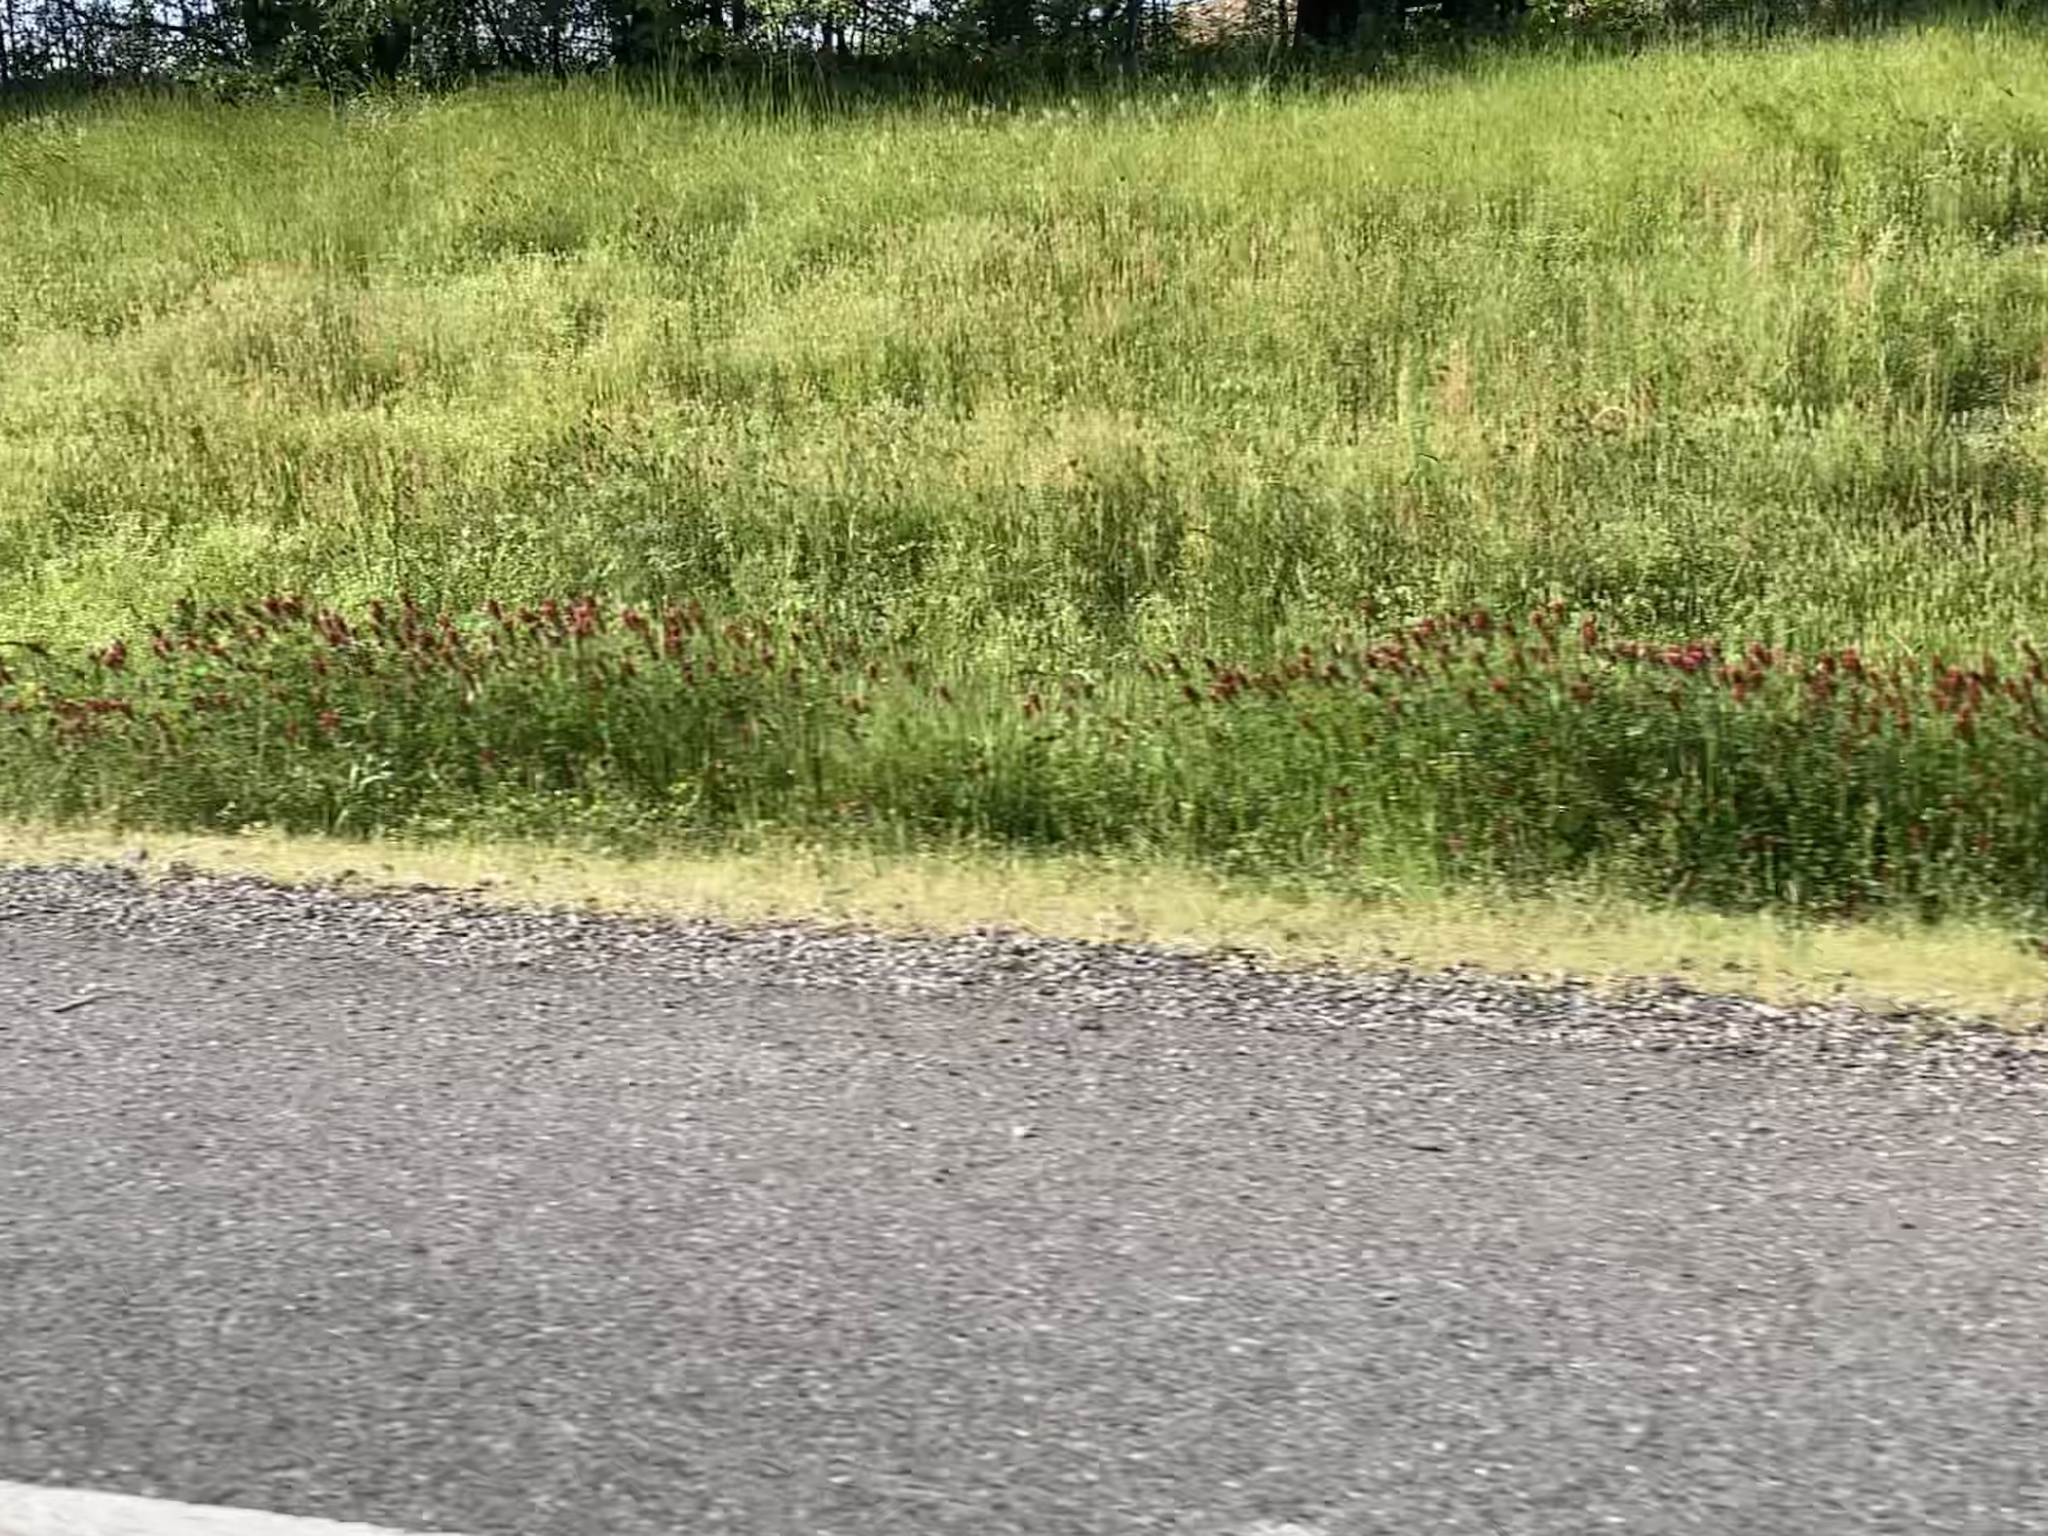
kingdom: Plantae
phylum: Tracheophyta
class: Magnoliopsida
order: Fabales
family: Fabaceae
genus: Trifolium
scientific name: Trifolium incarnatum
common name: Crimson clover
